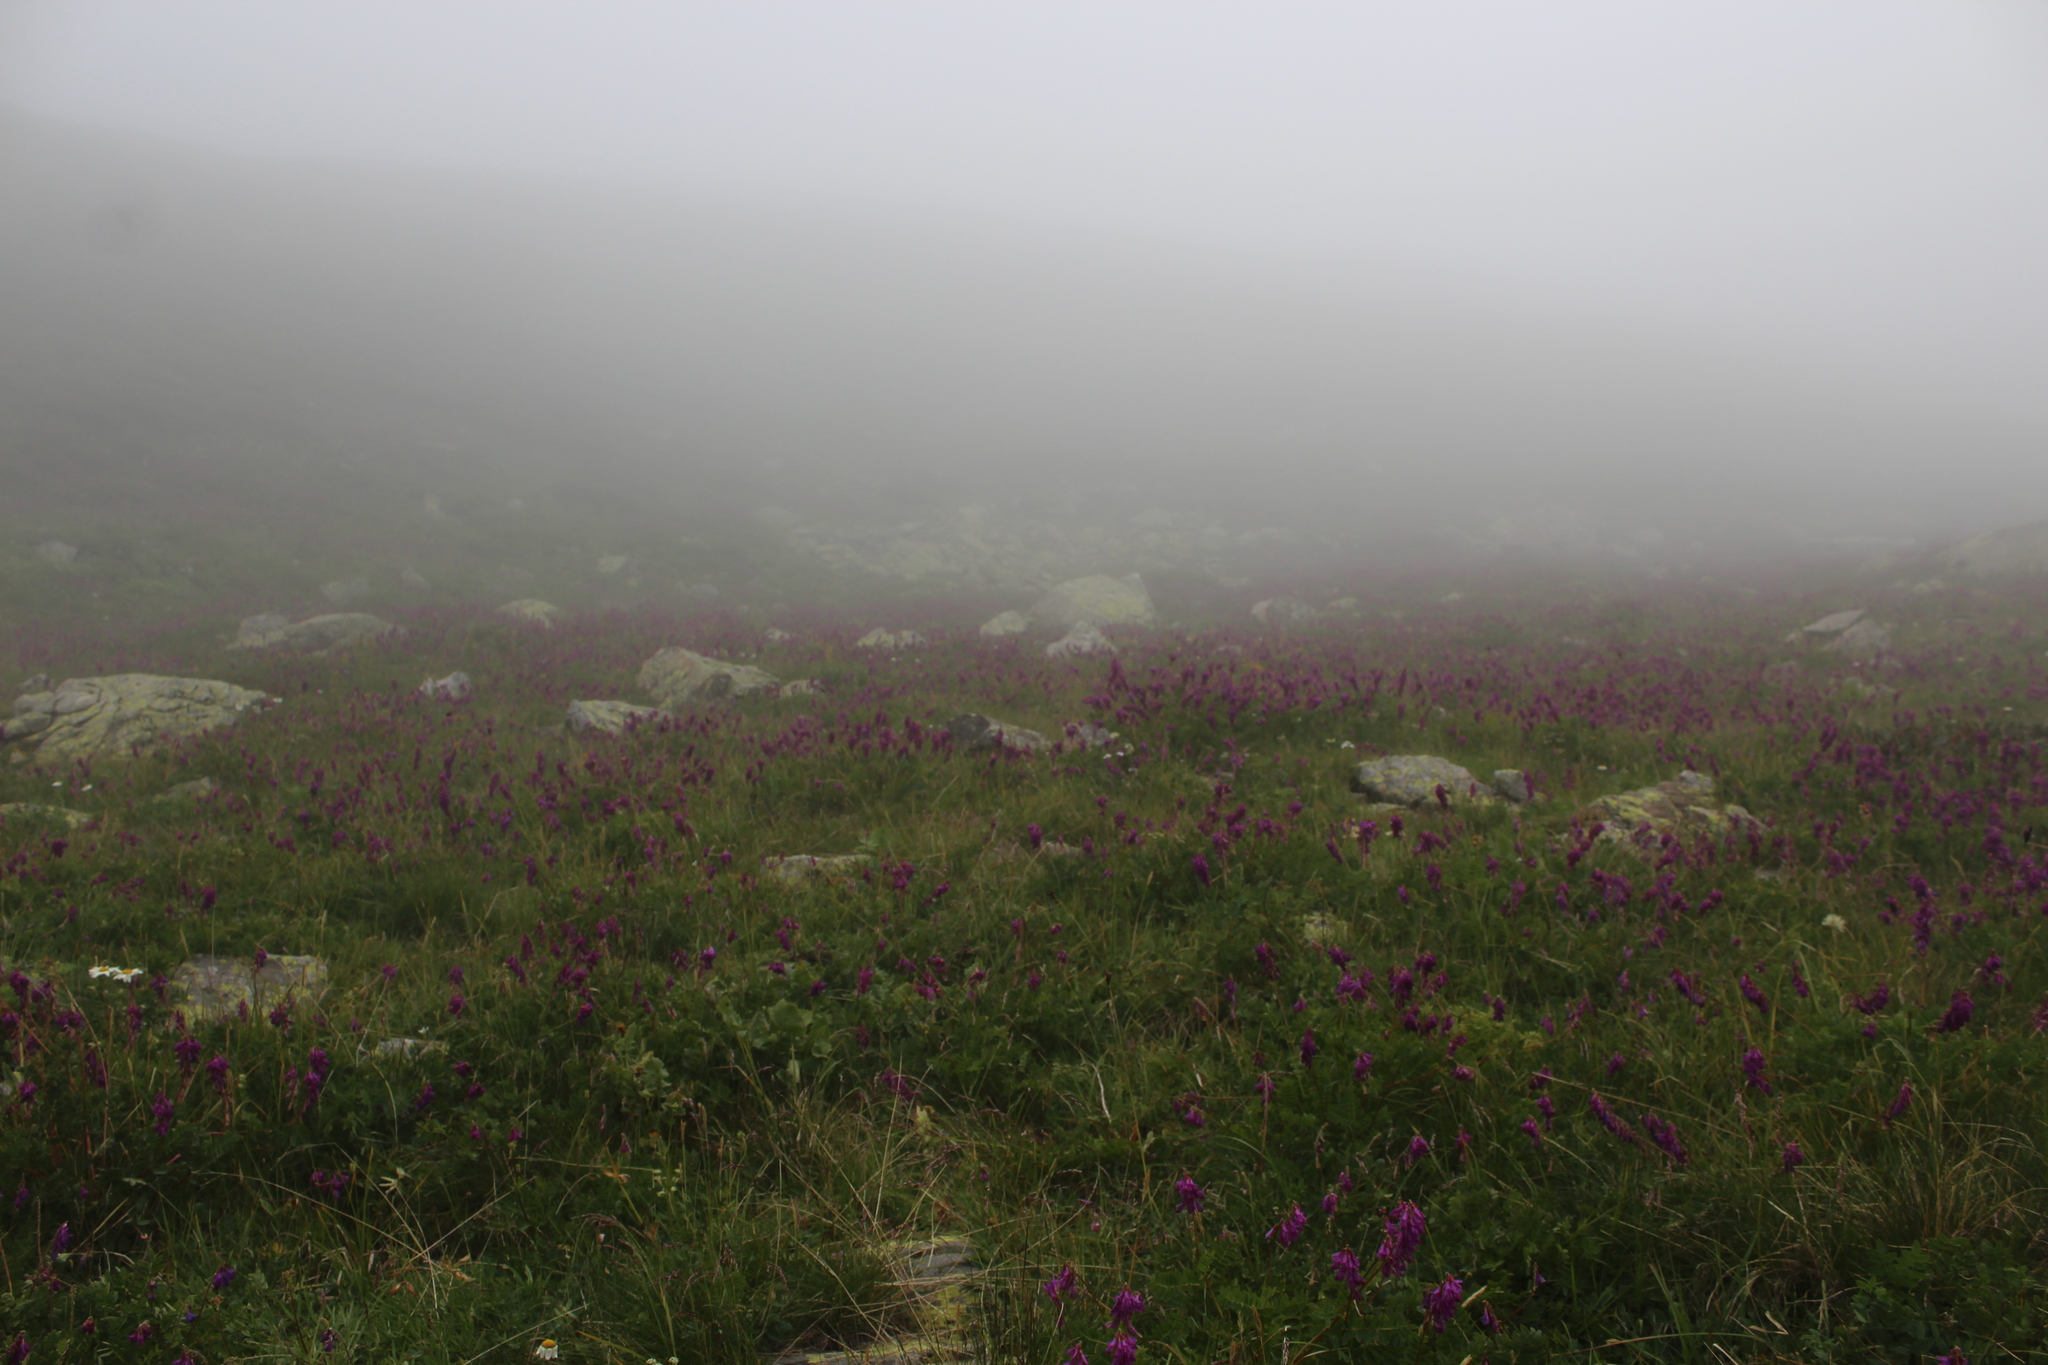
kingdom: Plantae
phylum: Tracheophyta
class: Magnoliopsida
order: Fabales
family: Fabaceae
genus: Hedysarum
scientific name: Hedysarum caucasicum
